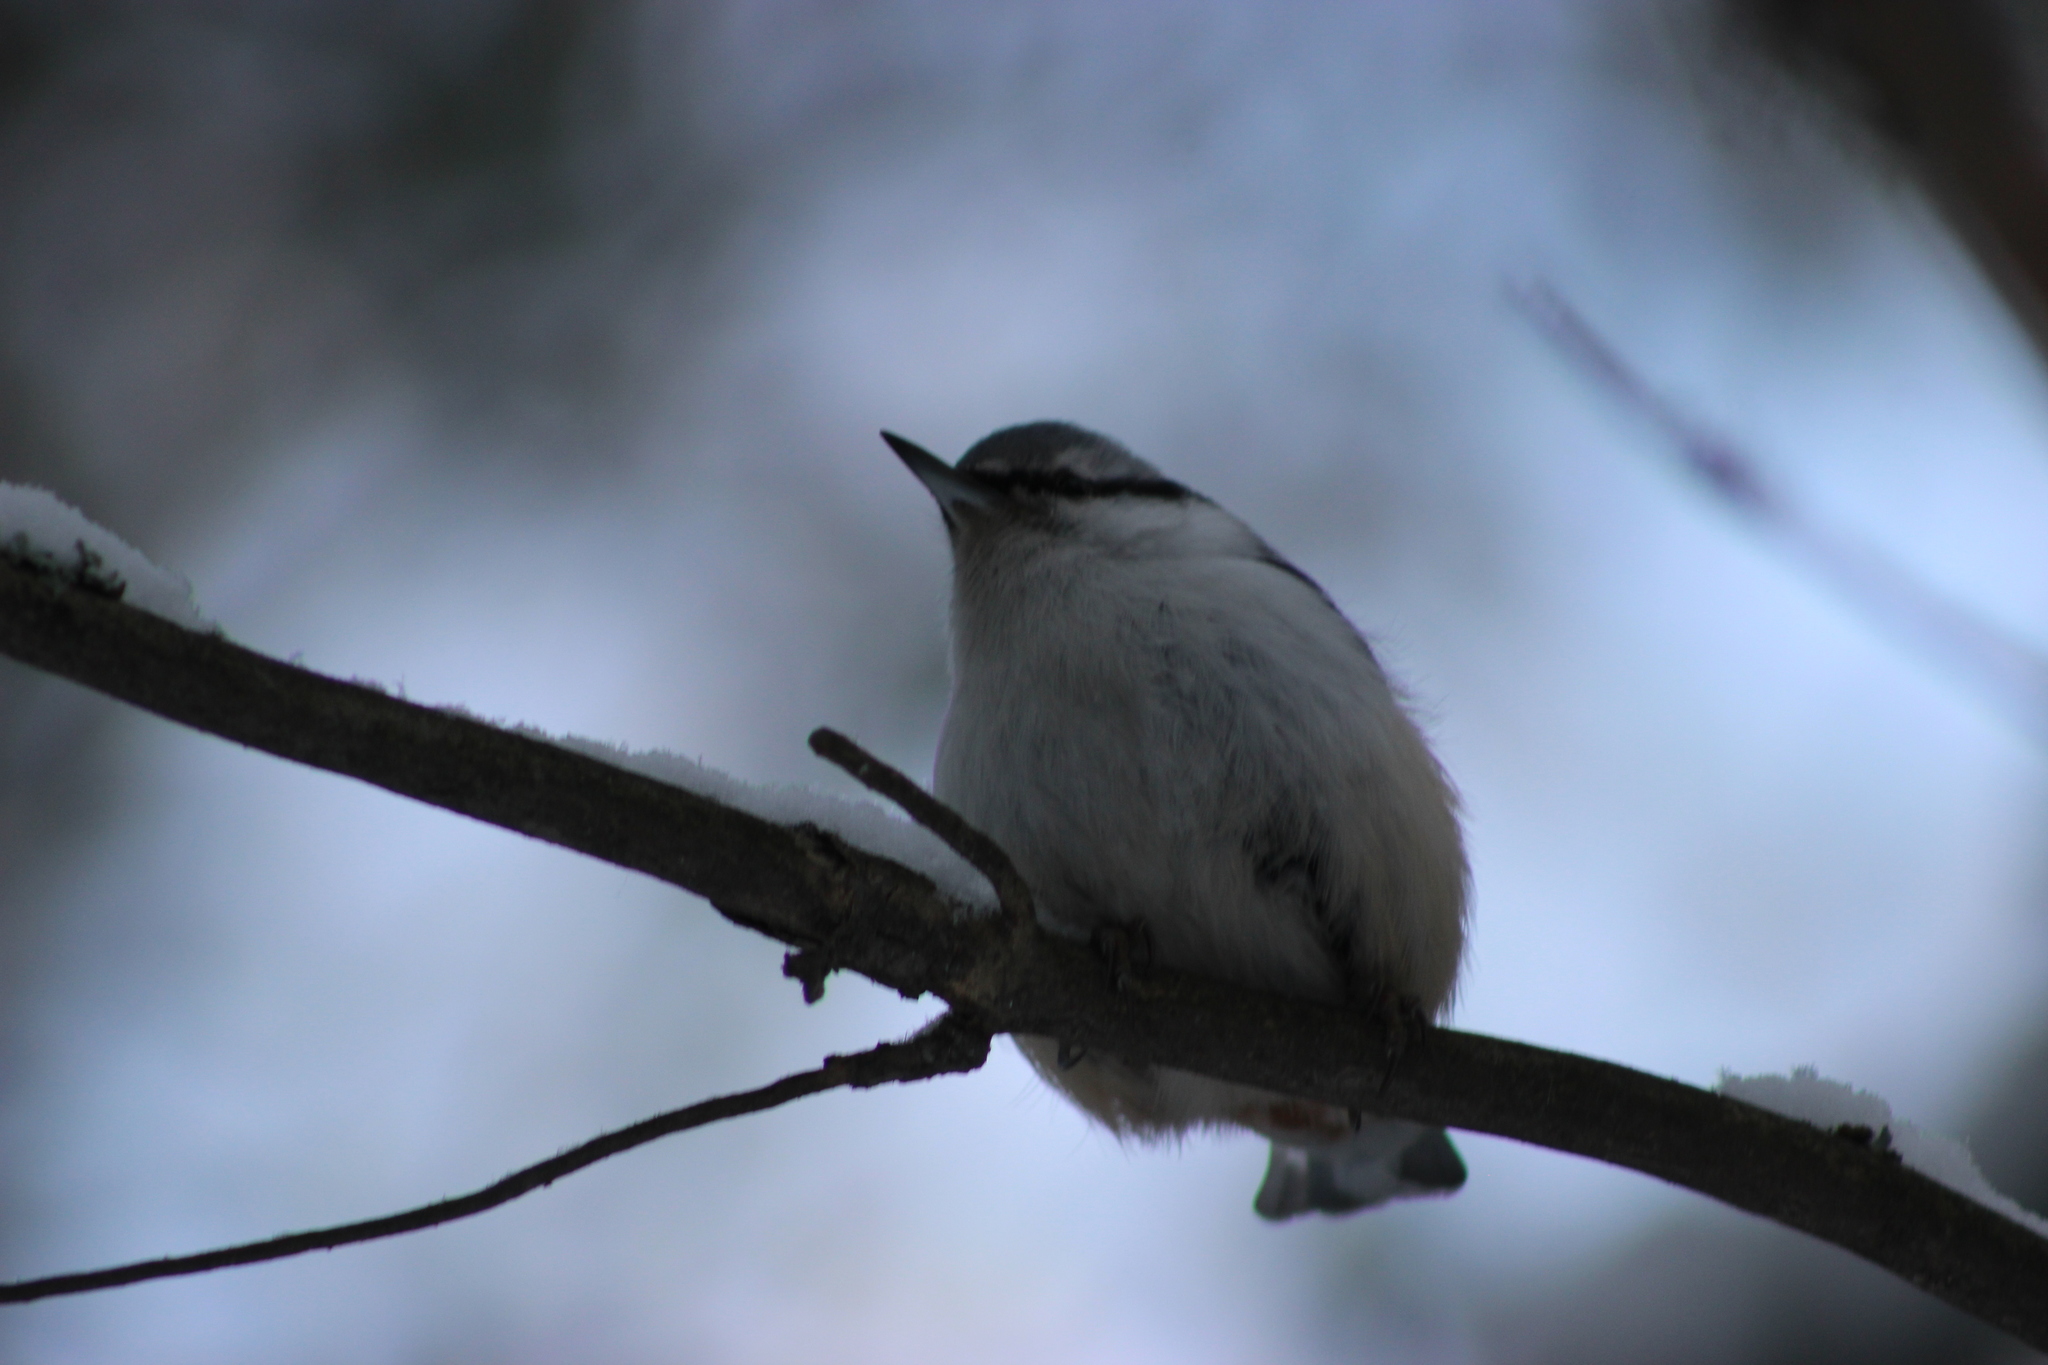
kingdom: Animalia
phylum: Chordata
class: Aves
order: Passeriformes
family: Sittidae
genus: Sitta
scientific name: Sitta europaea
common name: Eurasian nuthatch
